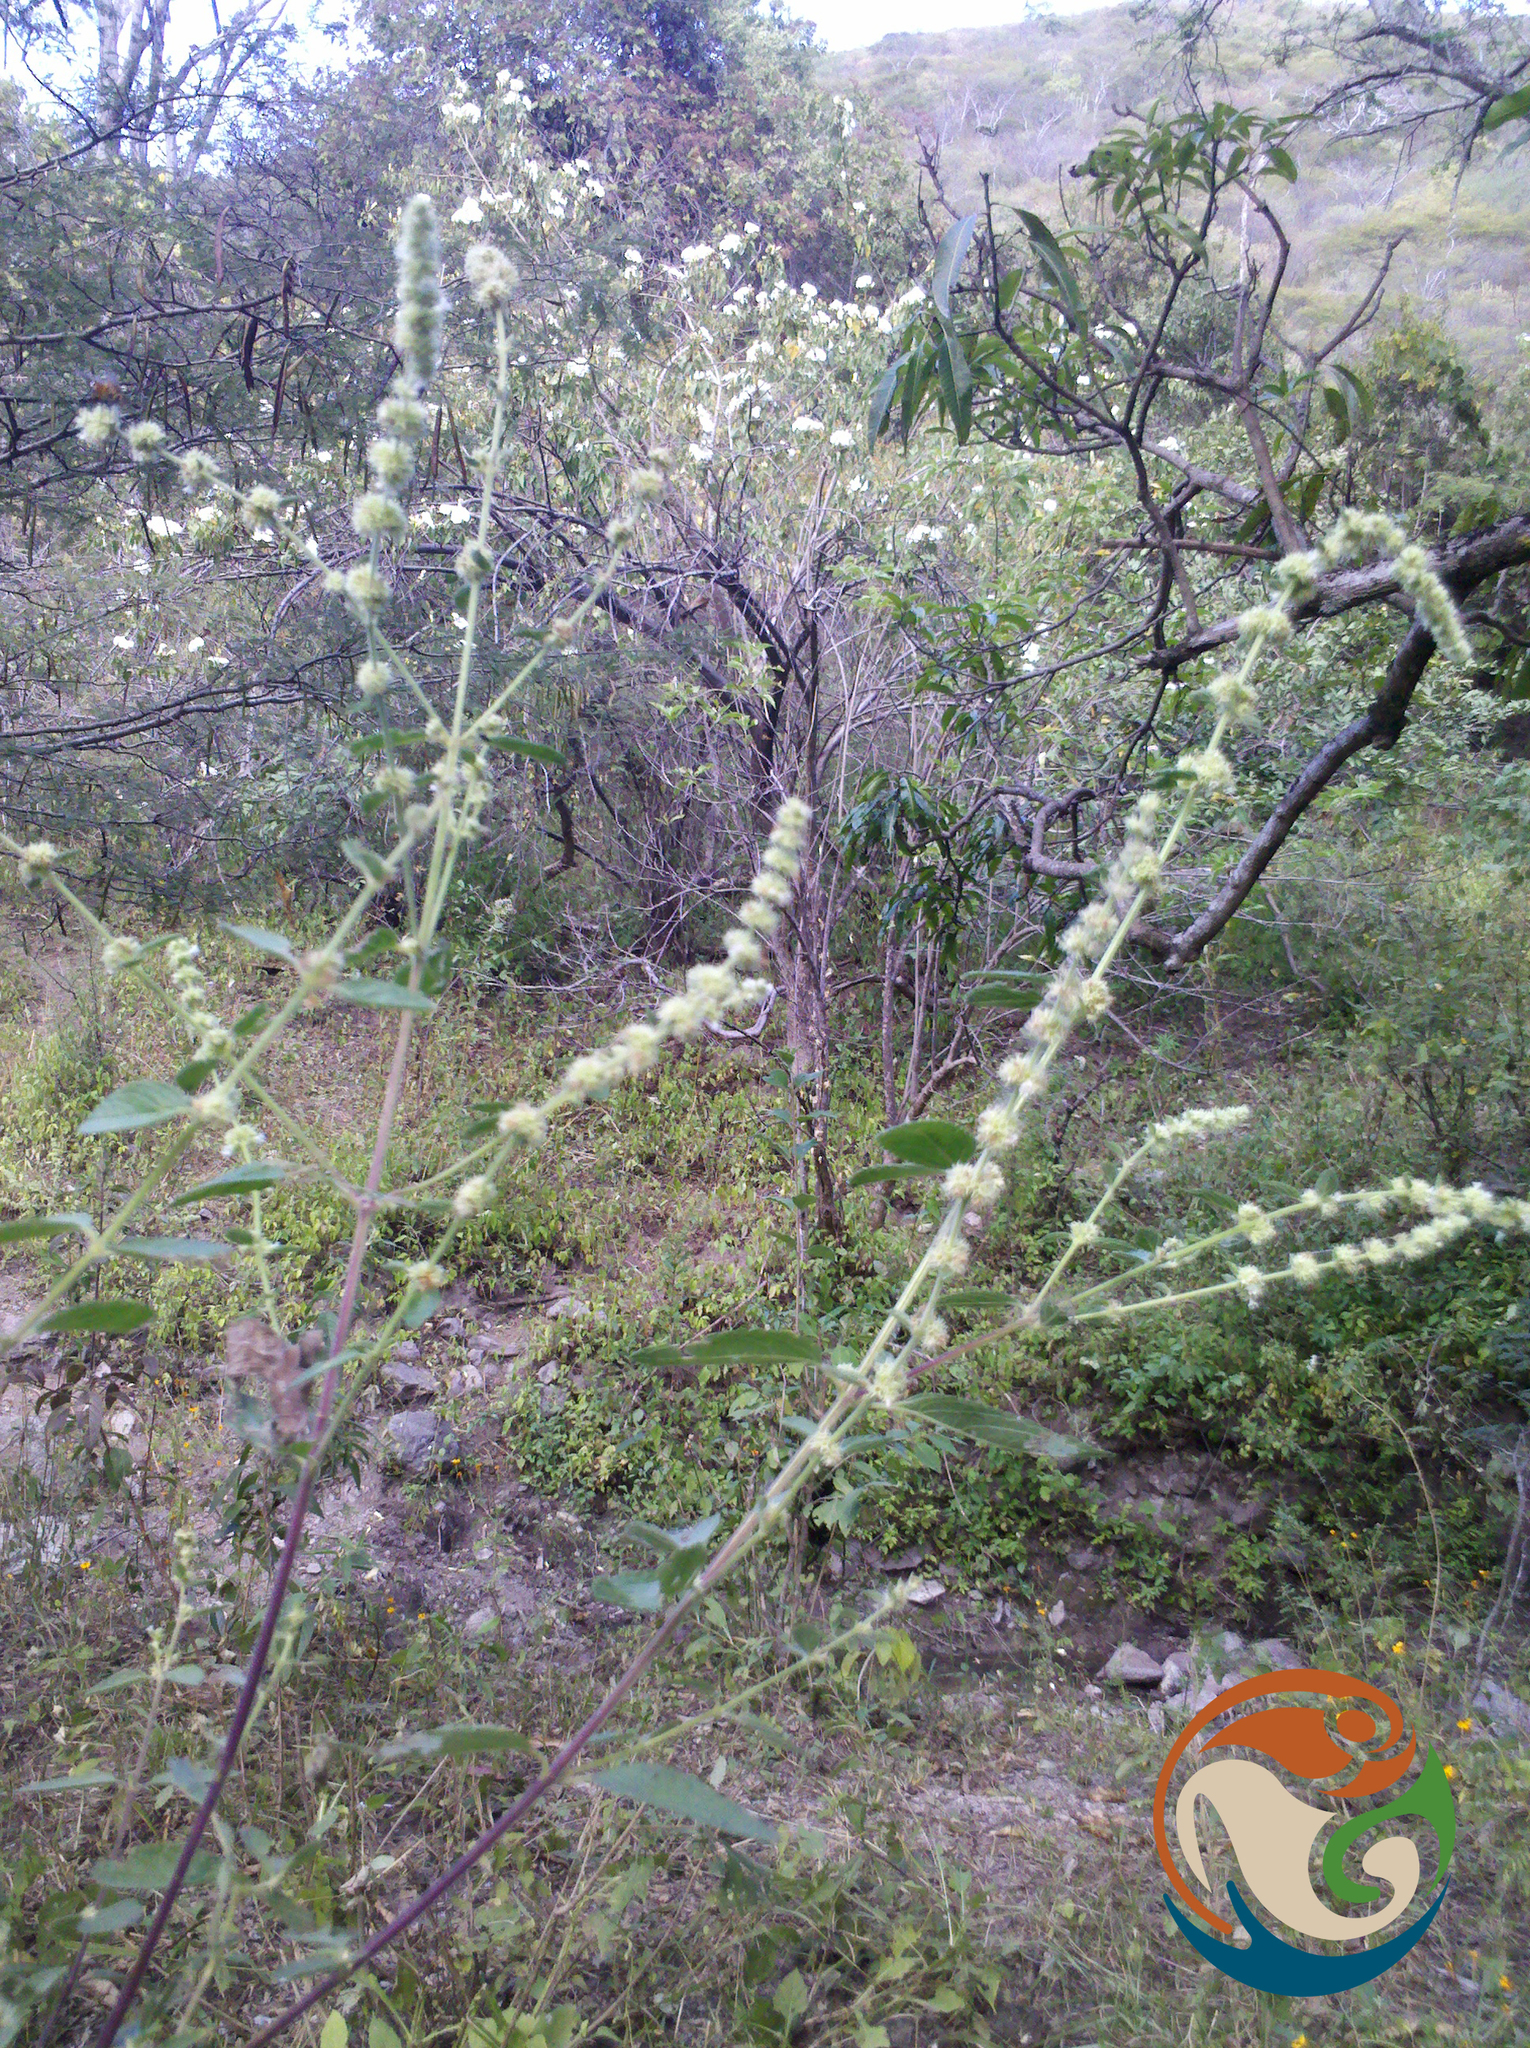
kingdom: Plantae
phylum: Tracheophyta
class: Magnoliopsida
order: Lamiales
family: Lamiaceae
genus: Asterohyptis
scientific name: Asterohyptis stellulata
